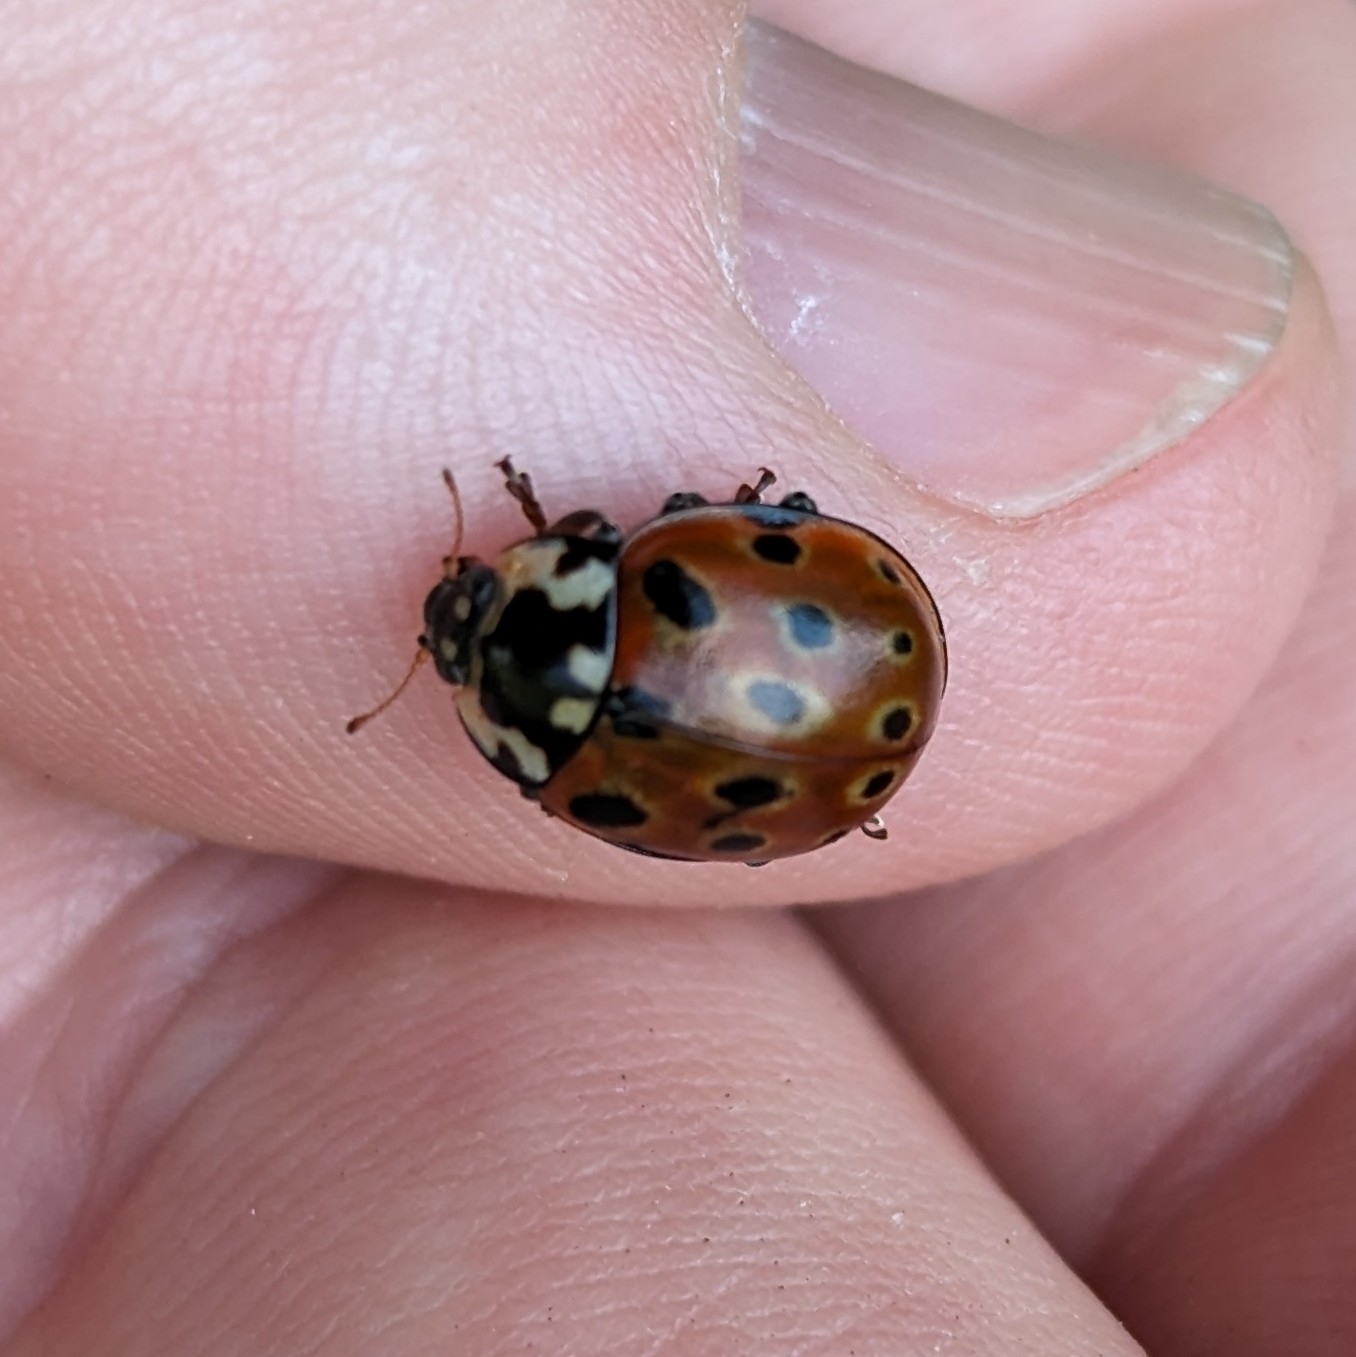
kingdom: Animalia
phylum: Arthropoda
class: Insecta
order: Coleoptera
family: Coccinellidae
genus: Anatis
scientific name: Anatis ocellata
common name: Eyed ladybird
